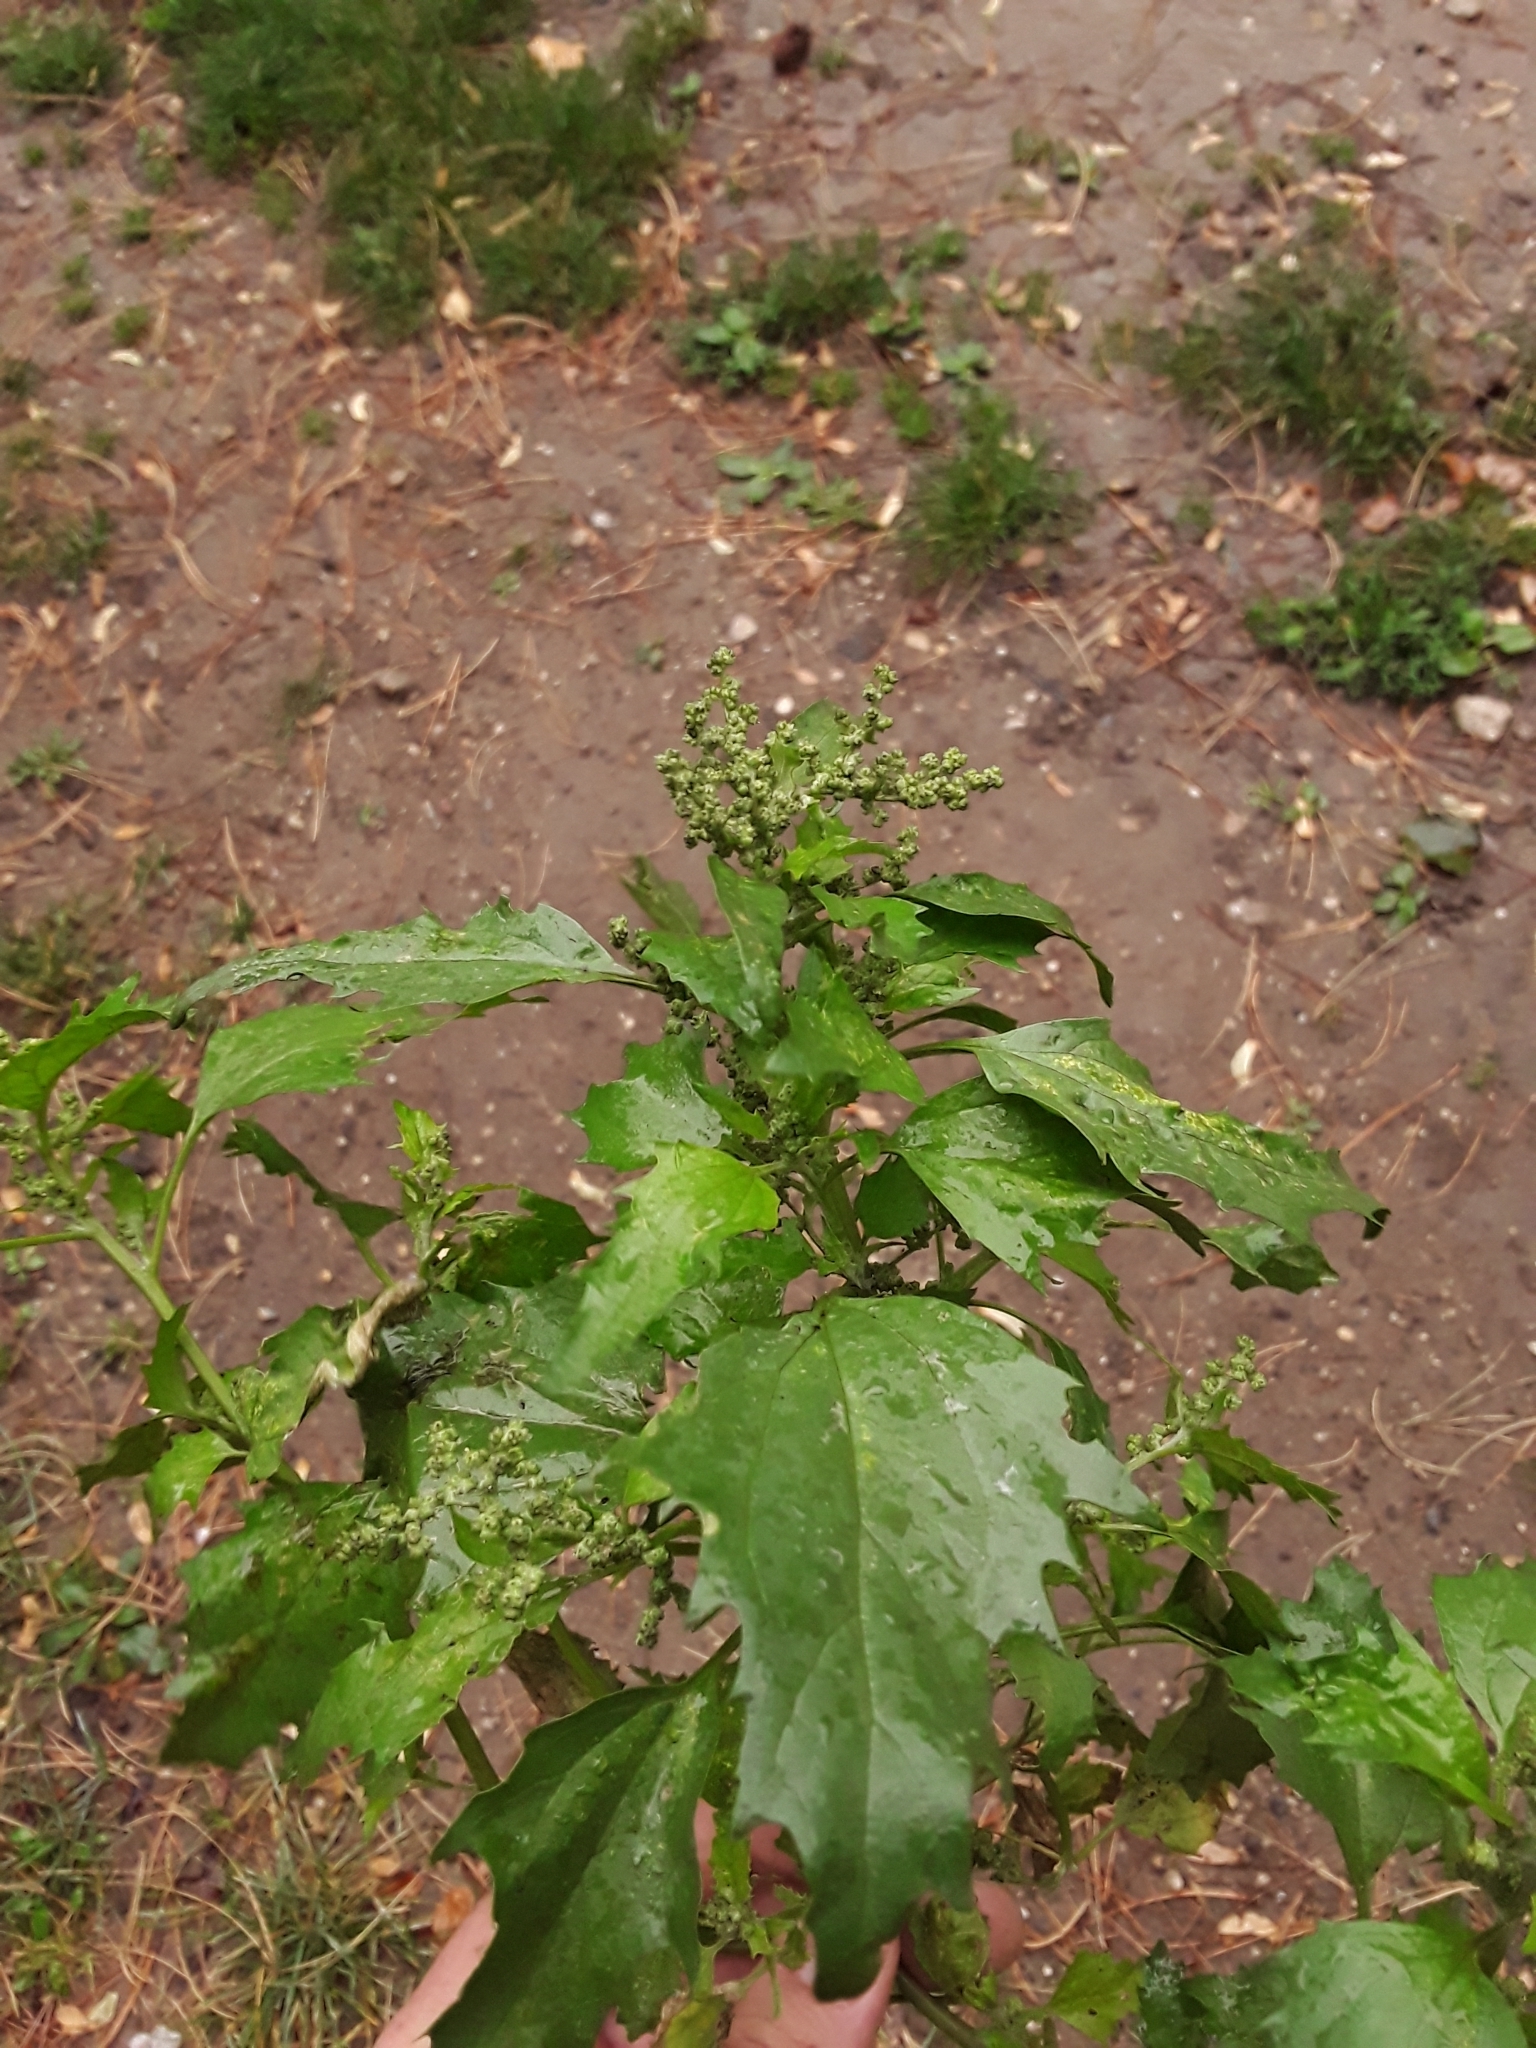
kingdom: Plantae
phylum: Tracheophyta
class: Magnoliopsida
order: Caryophyllales
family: Amaranthaceae
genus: Chenopodiastrum
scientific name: Chenopodiastrum murale
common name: Sowbane
